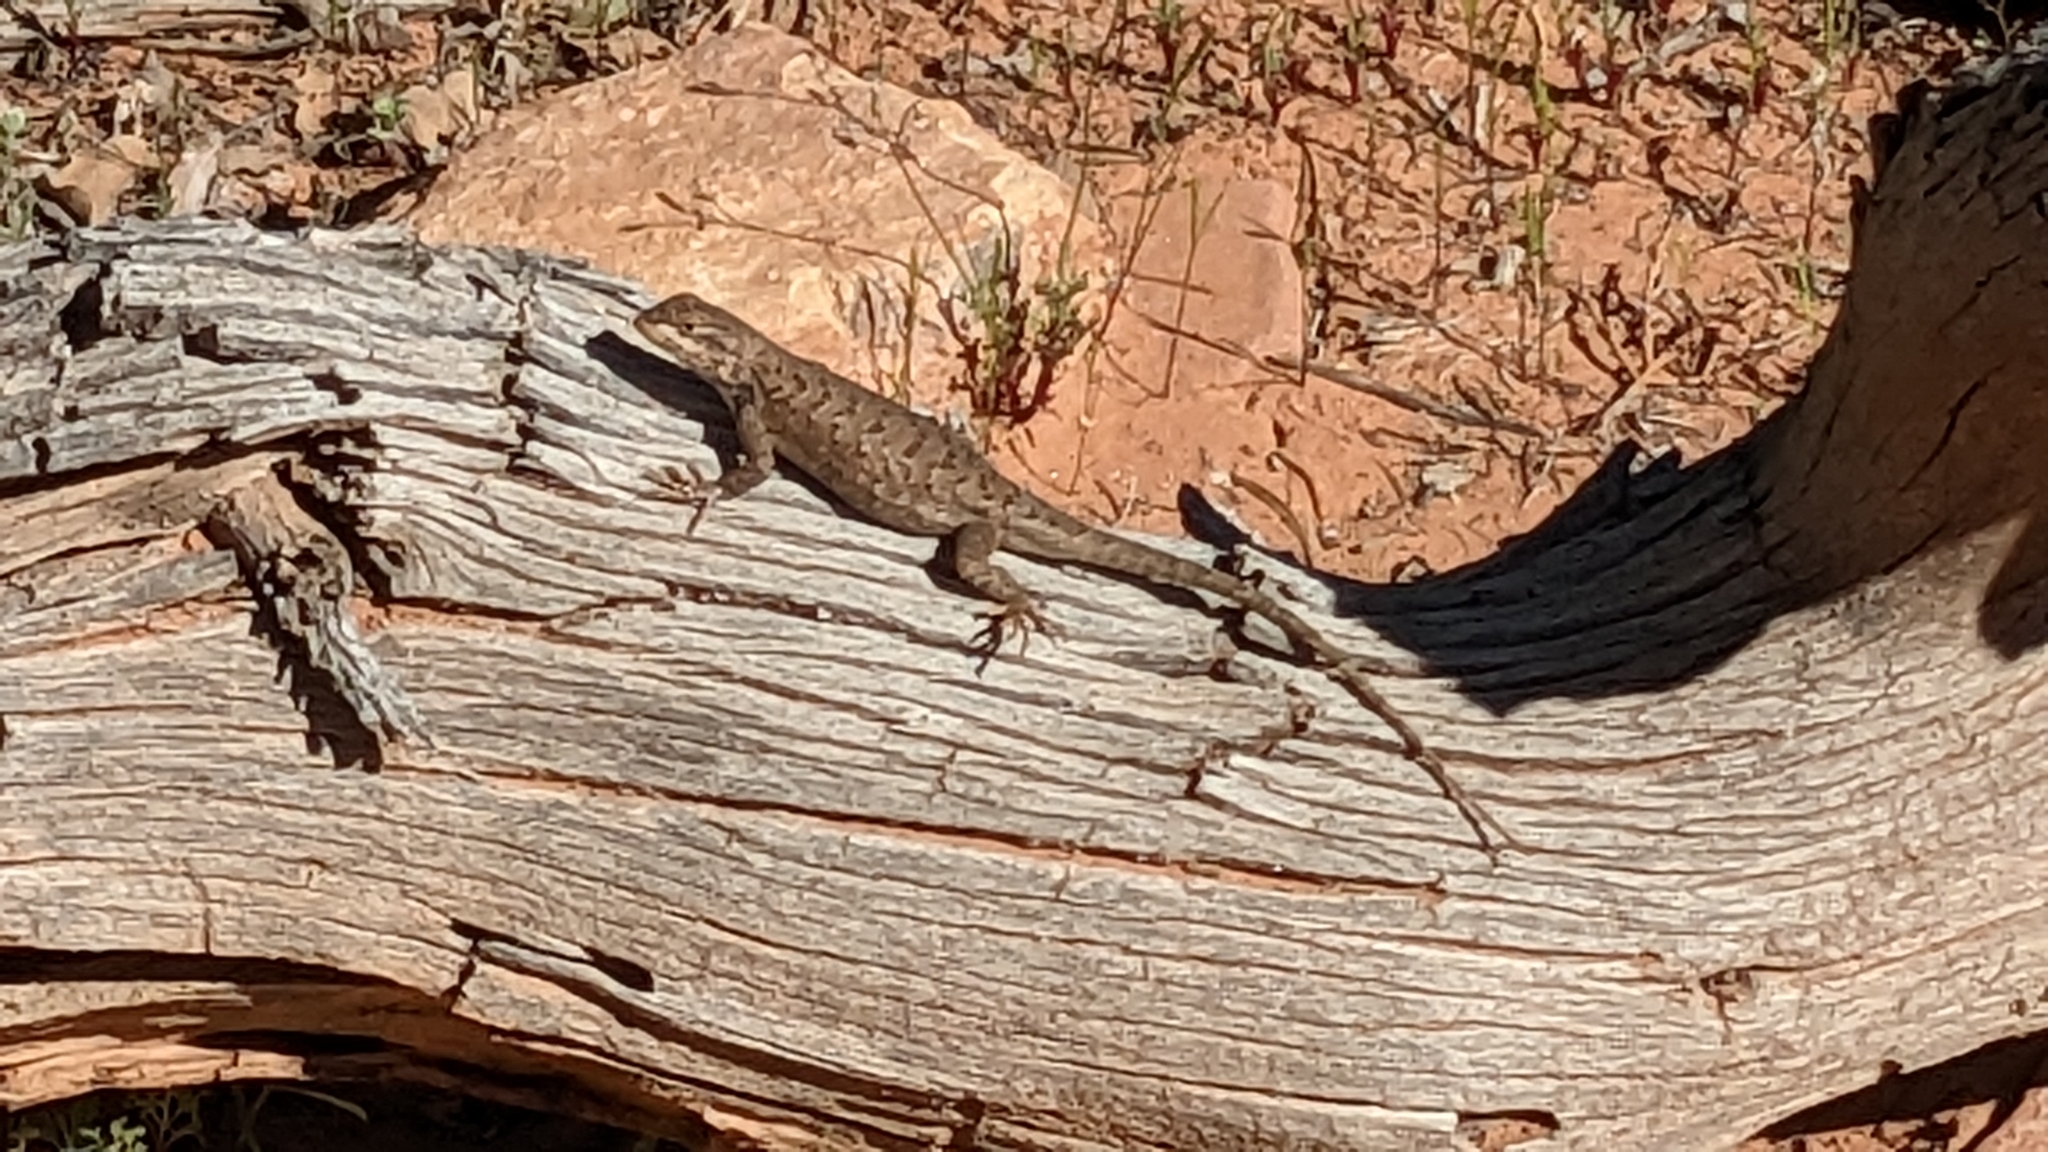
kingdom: Animalia
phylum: Chordata
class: Squamata
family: Phrynosomatidae
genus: Sceloporus
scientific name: Sceloporus tristichus
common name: Plateau fence lizard
